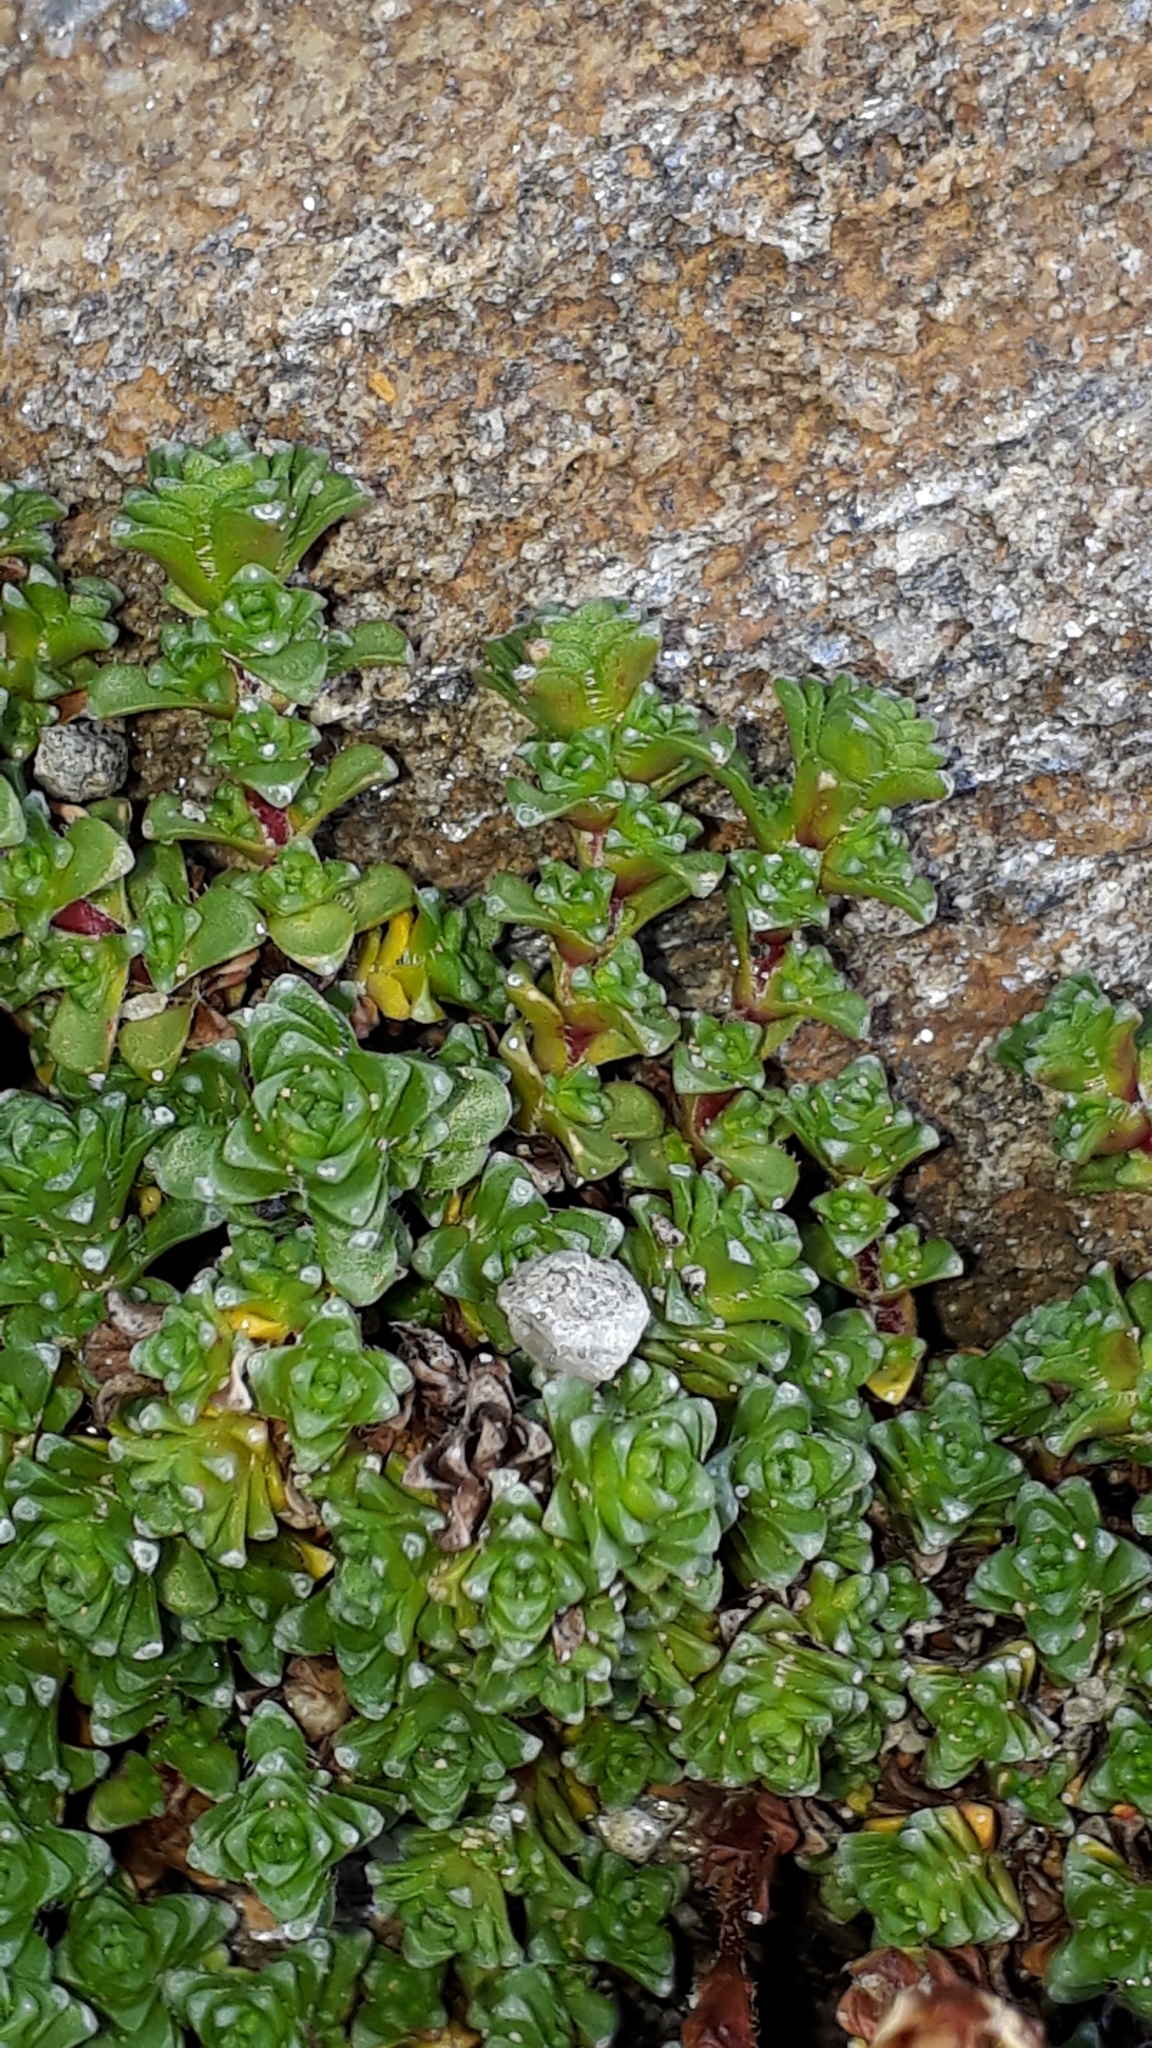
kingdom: Plantae
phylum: Tracheophyta
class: Magnoliopsida
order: Saxifragales
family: Saxifragaceae
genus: Saxifraga
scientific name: Saxifraga oppositifolia
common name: Purple saxifrage
